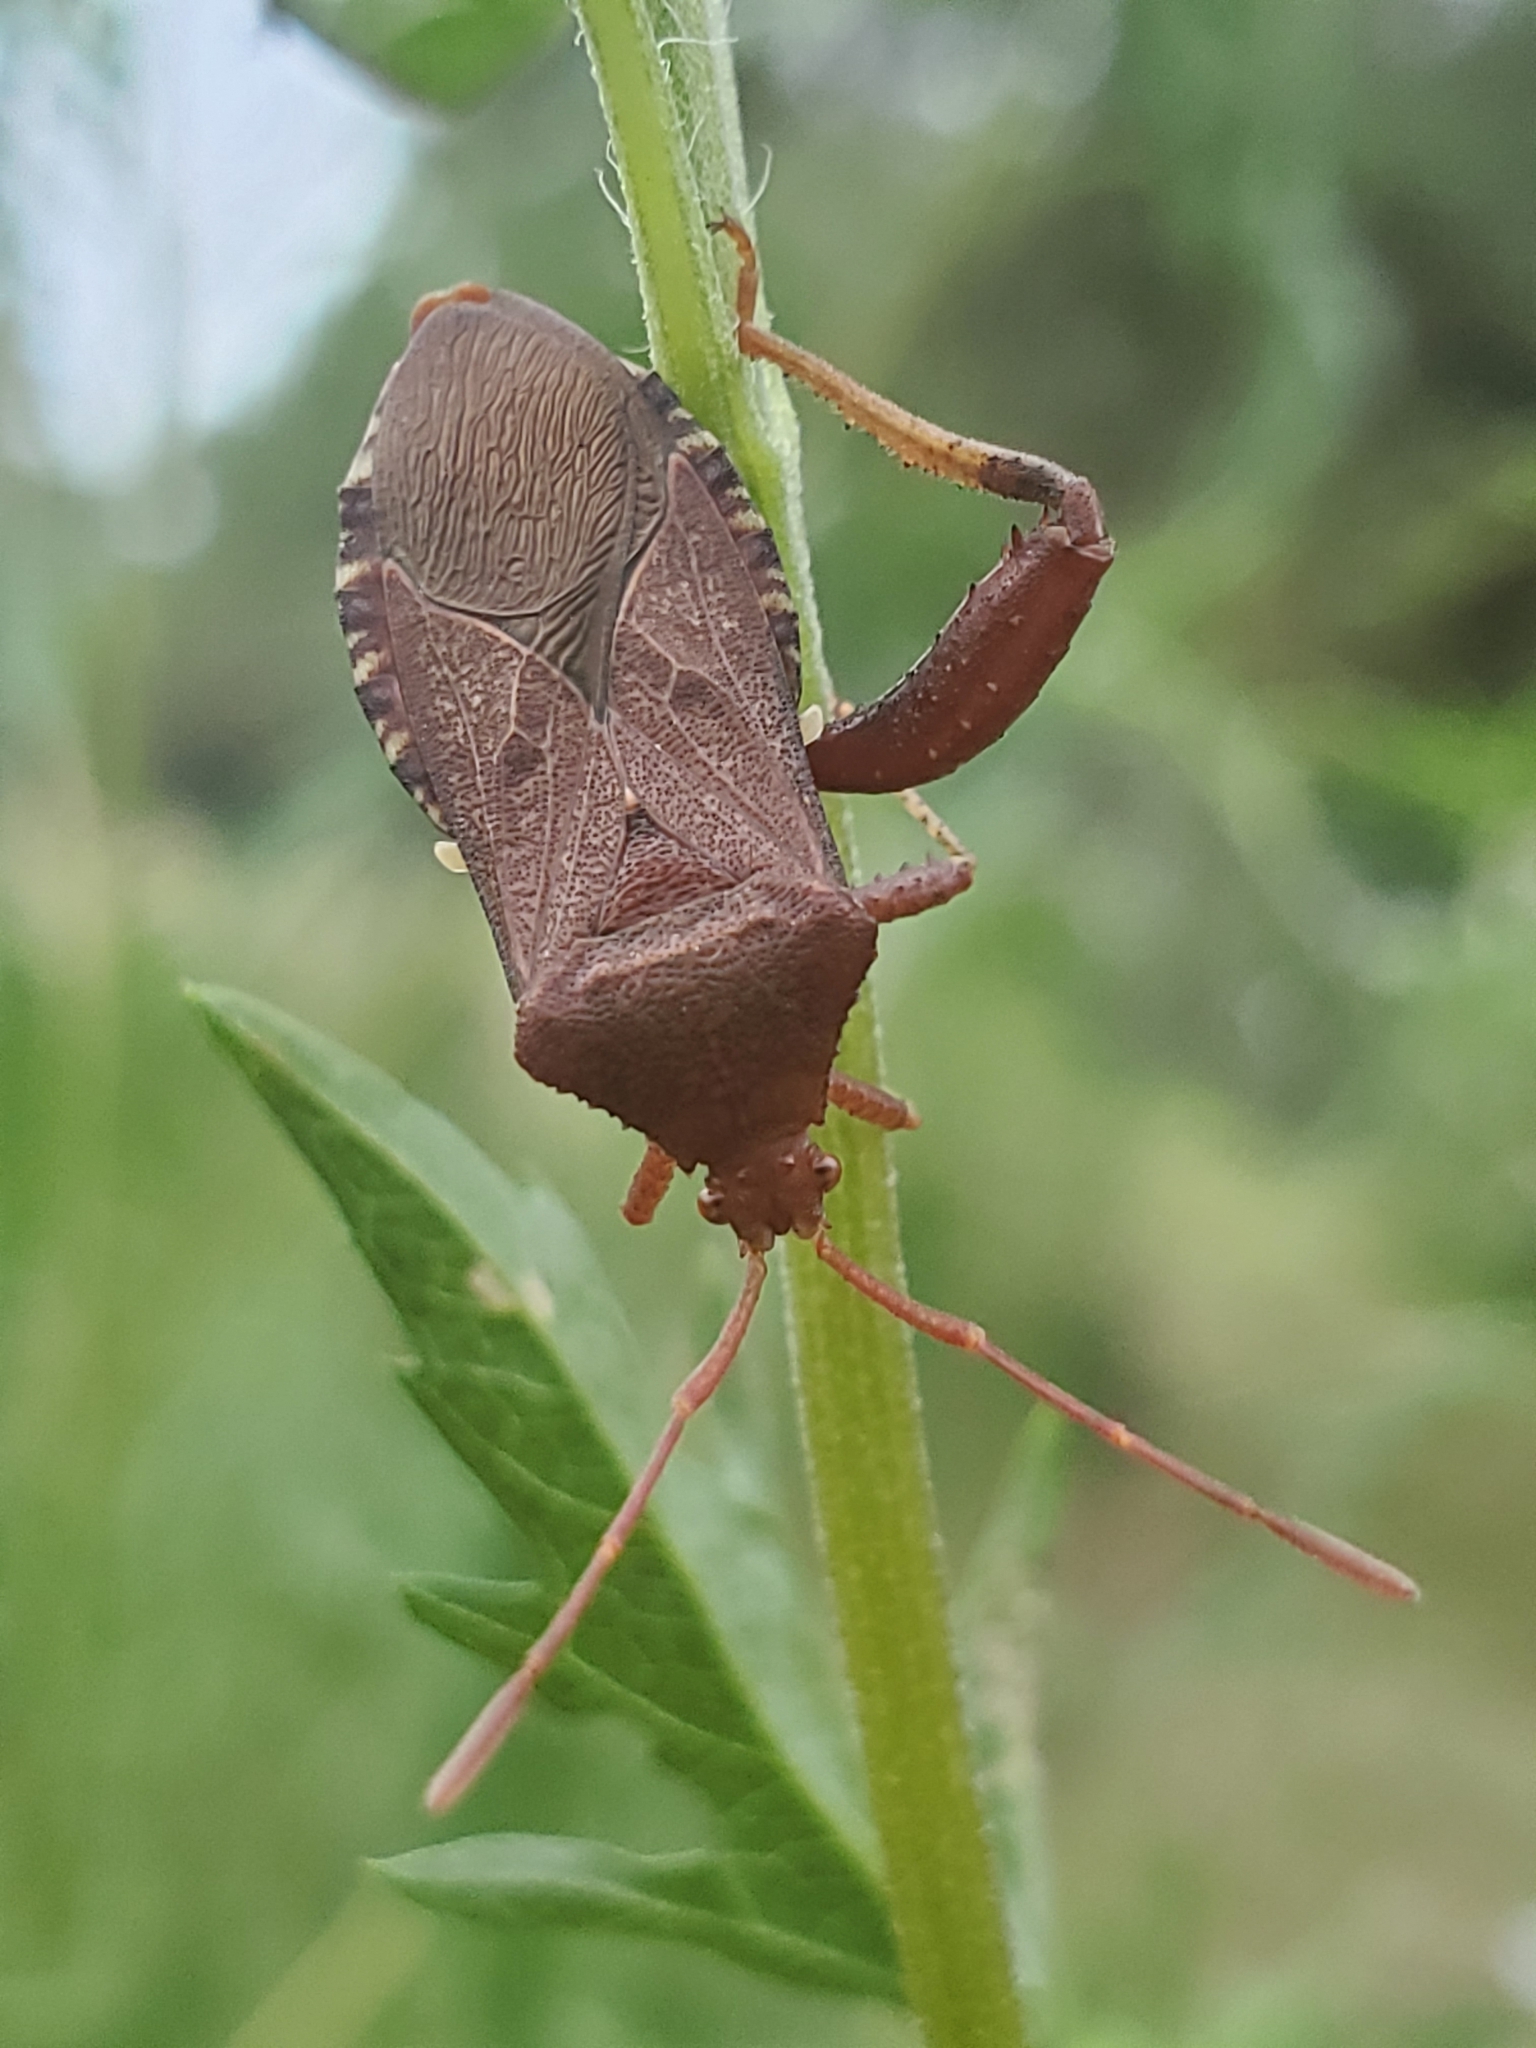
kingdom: Animalia
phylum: Arthropoda
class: Insecta
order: Hemiptera
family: Coreidae
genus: Euthochtha
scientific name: Euthochtha galeator
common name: Helmeted squash bug
